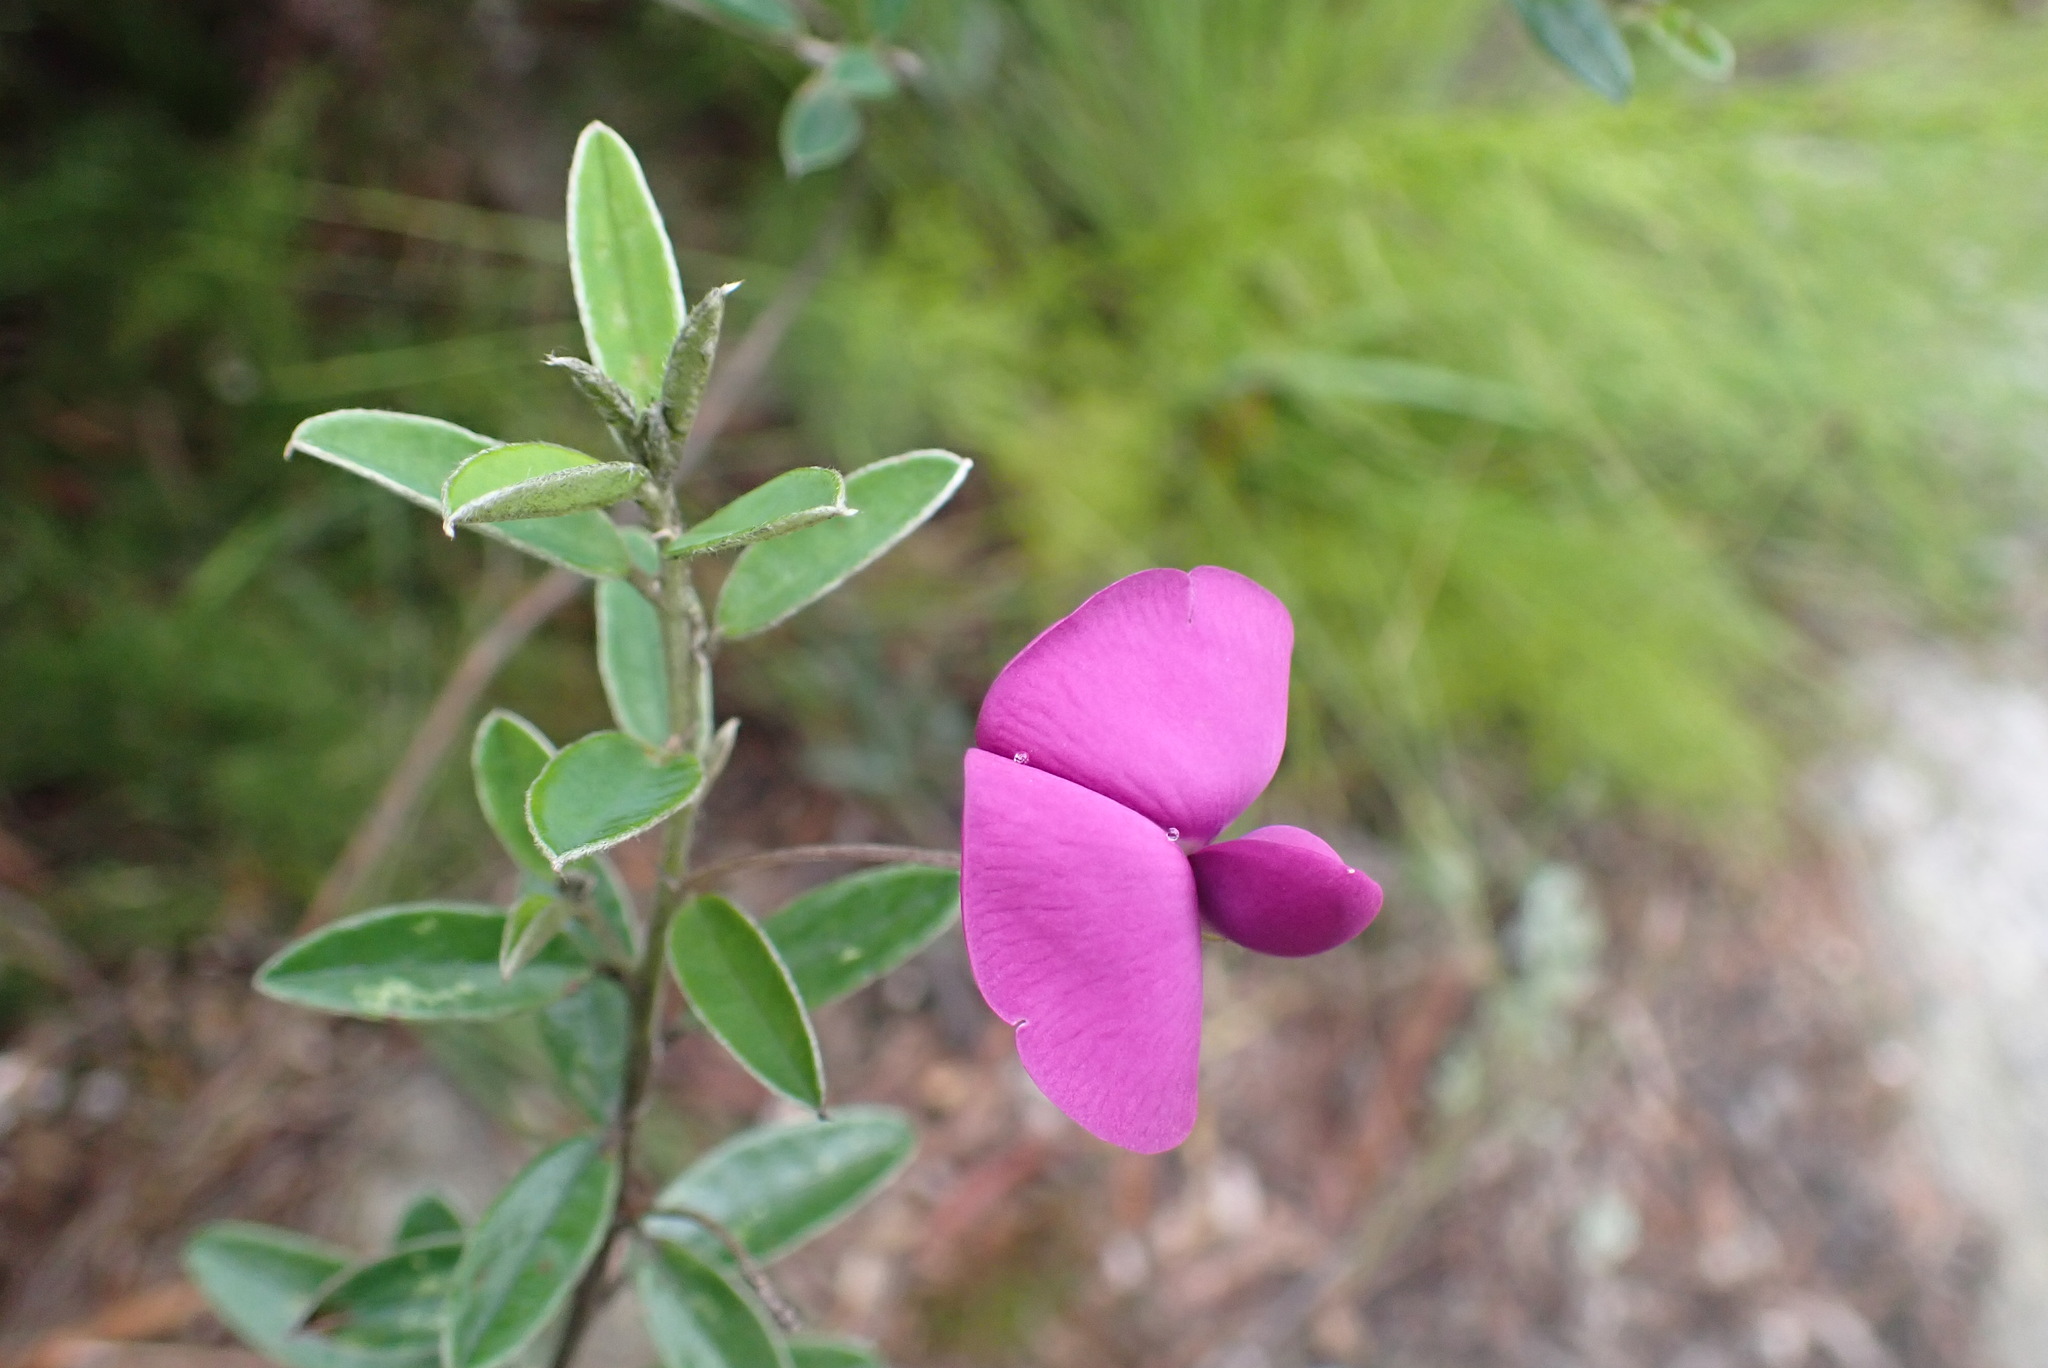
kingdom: Plantae
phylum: Tracheophyta
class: Magnoliopsida
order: Fabales
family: Fabaceae
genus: Podalyria
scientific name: Podalyria buxifolia
